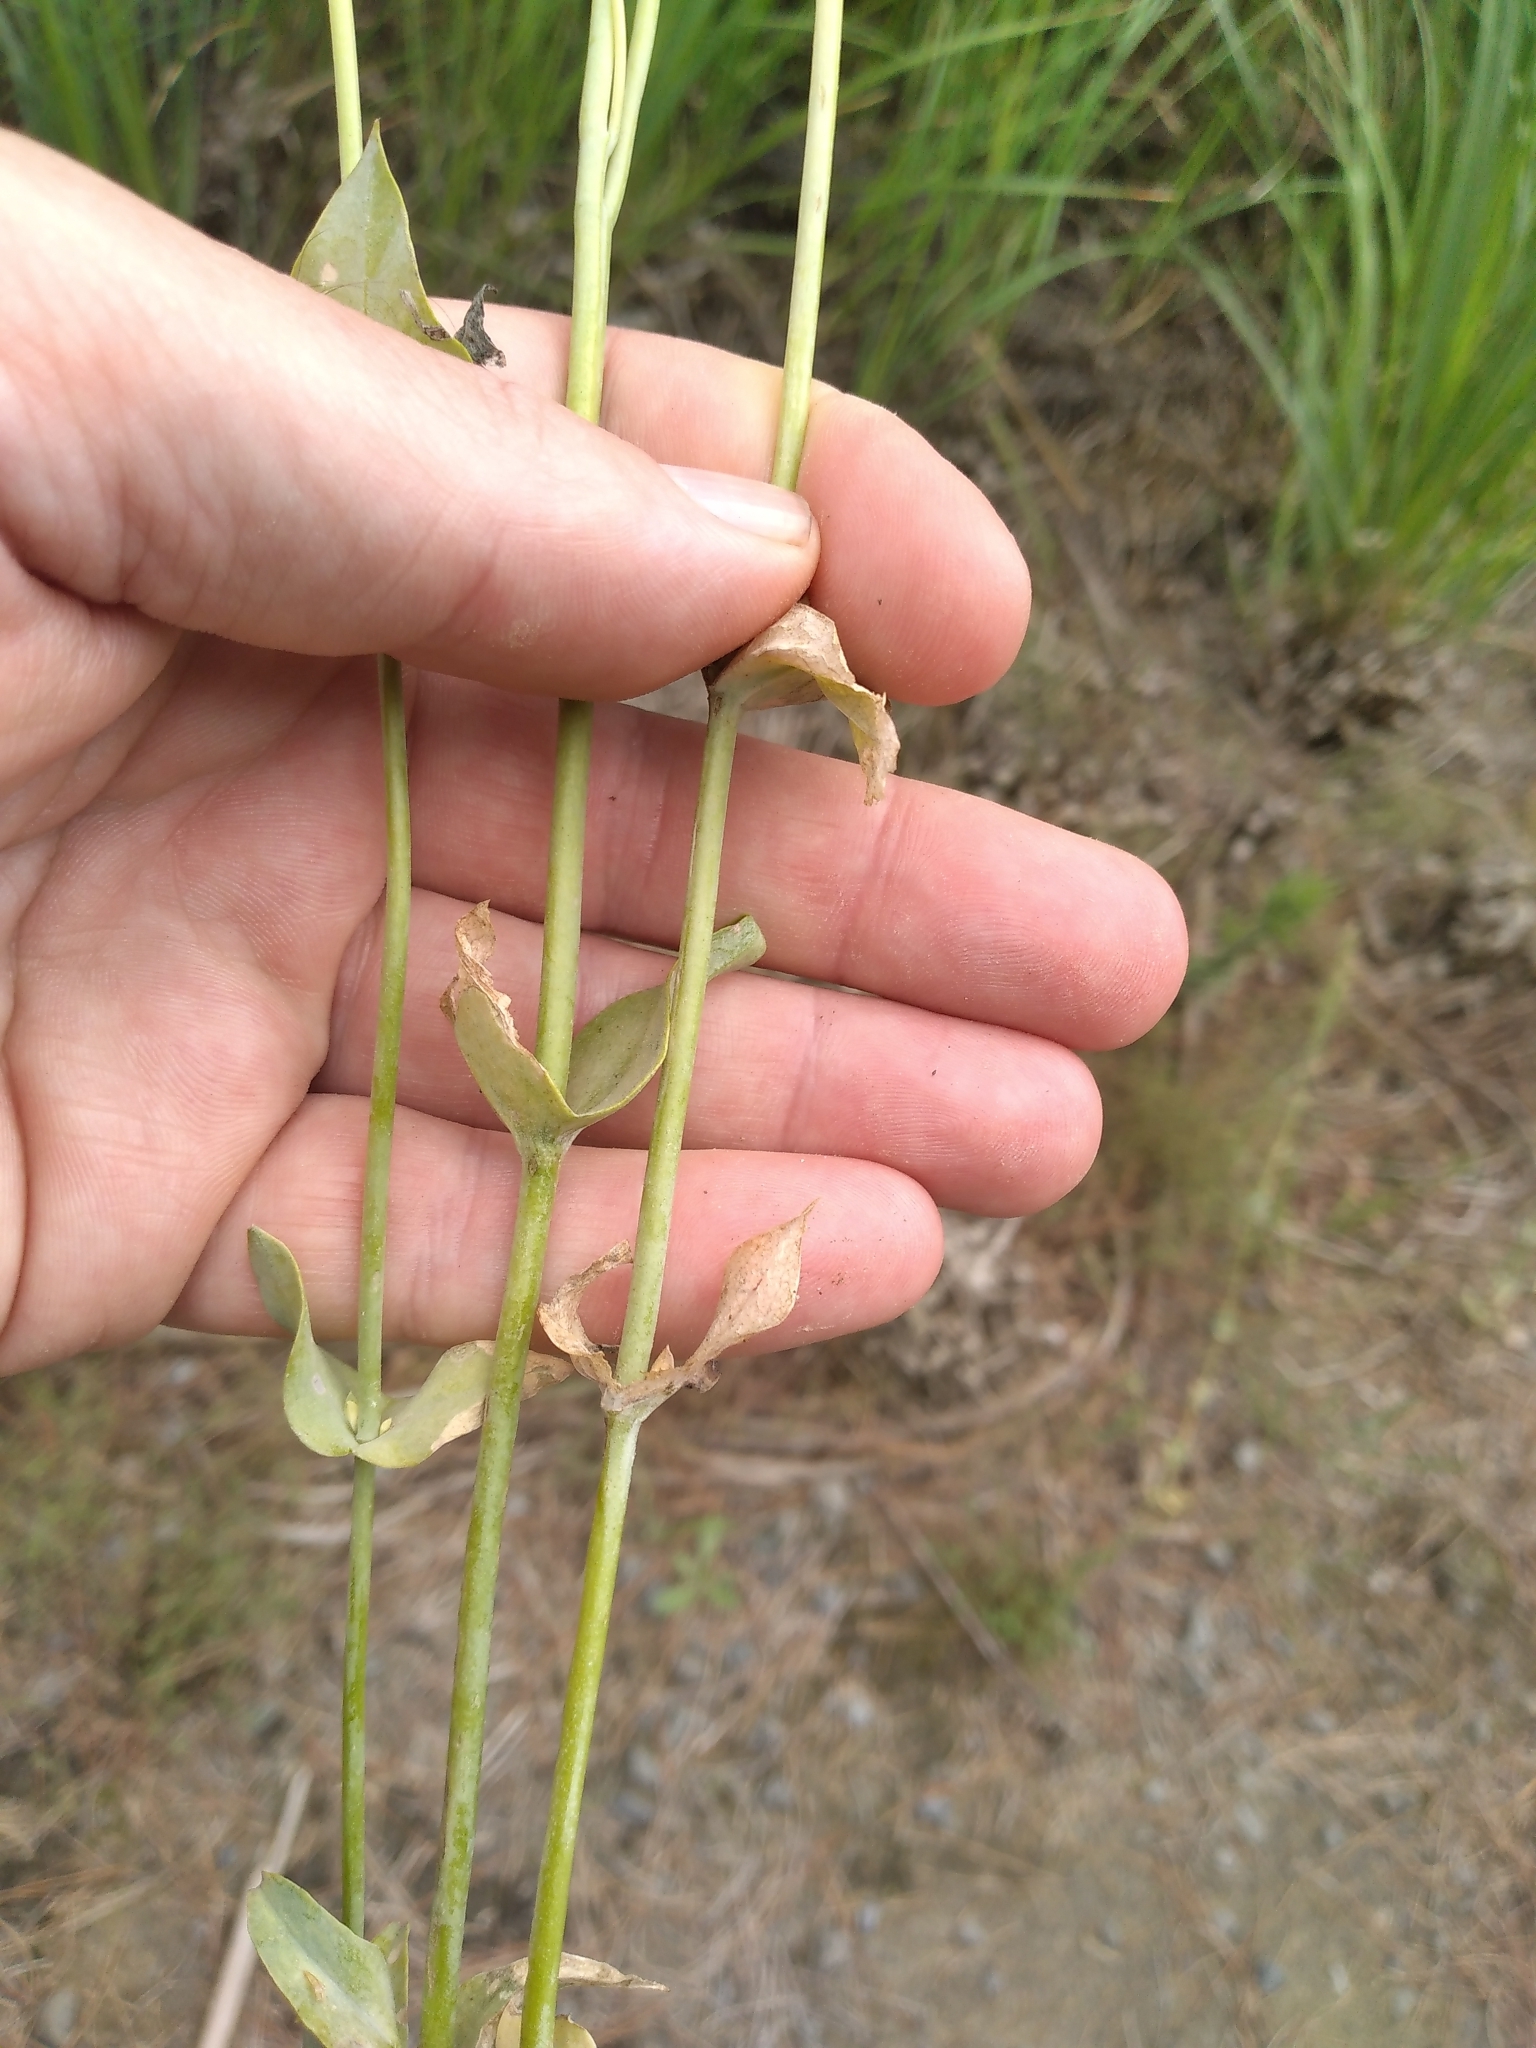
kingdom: Plantae
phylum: Tracheophyta
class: Magnoliopsida
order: Gentianales
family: Gentianaceae
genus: Blackstonia
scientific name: Blackstonia perfoliata
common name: Yellow-wort
